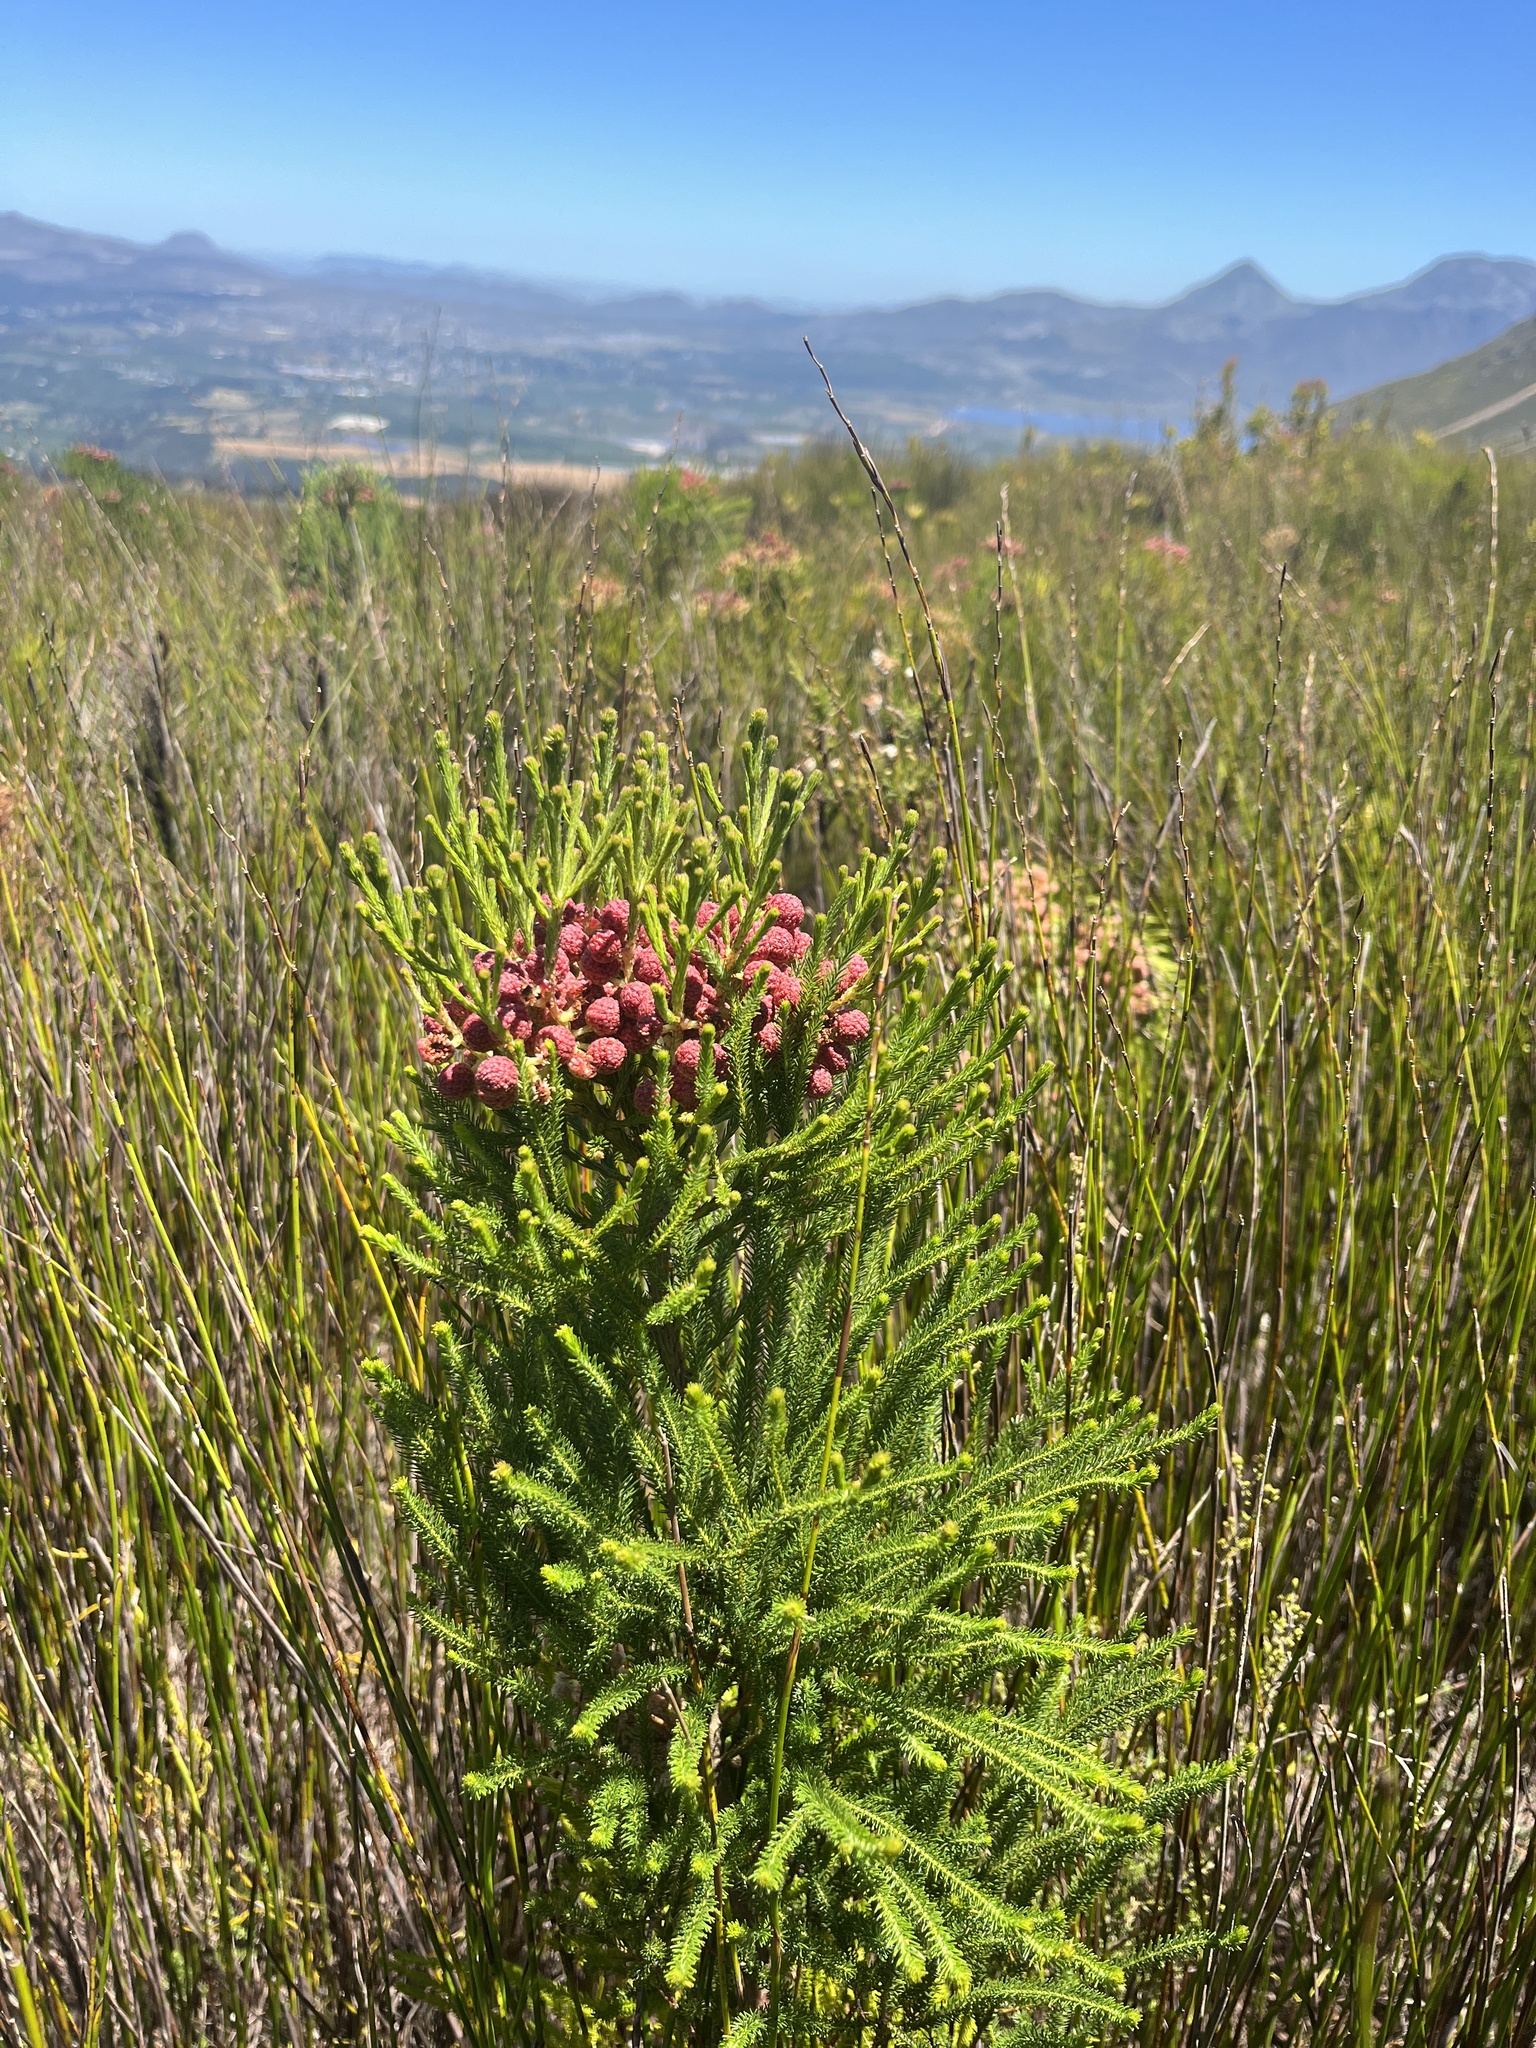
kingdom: Plantae
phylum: Tracheophyta
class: Magnoliopsida
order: Bruniales
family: Bruniaceae
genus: Berzelia
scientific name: Berzelia lanuginosa
